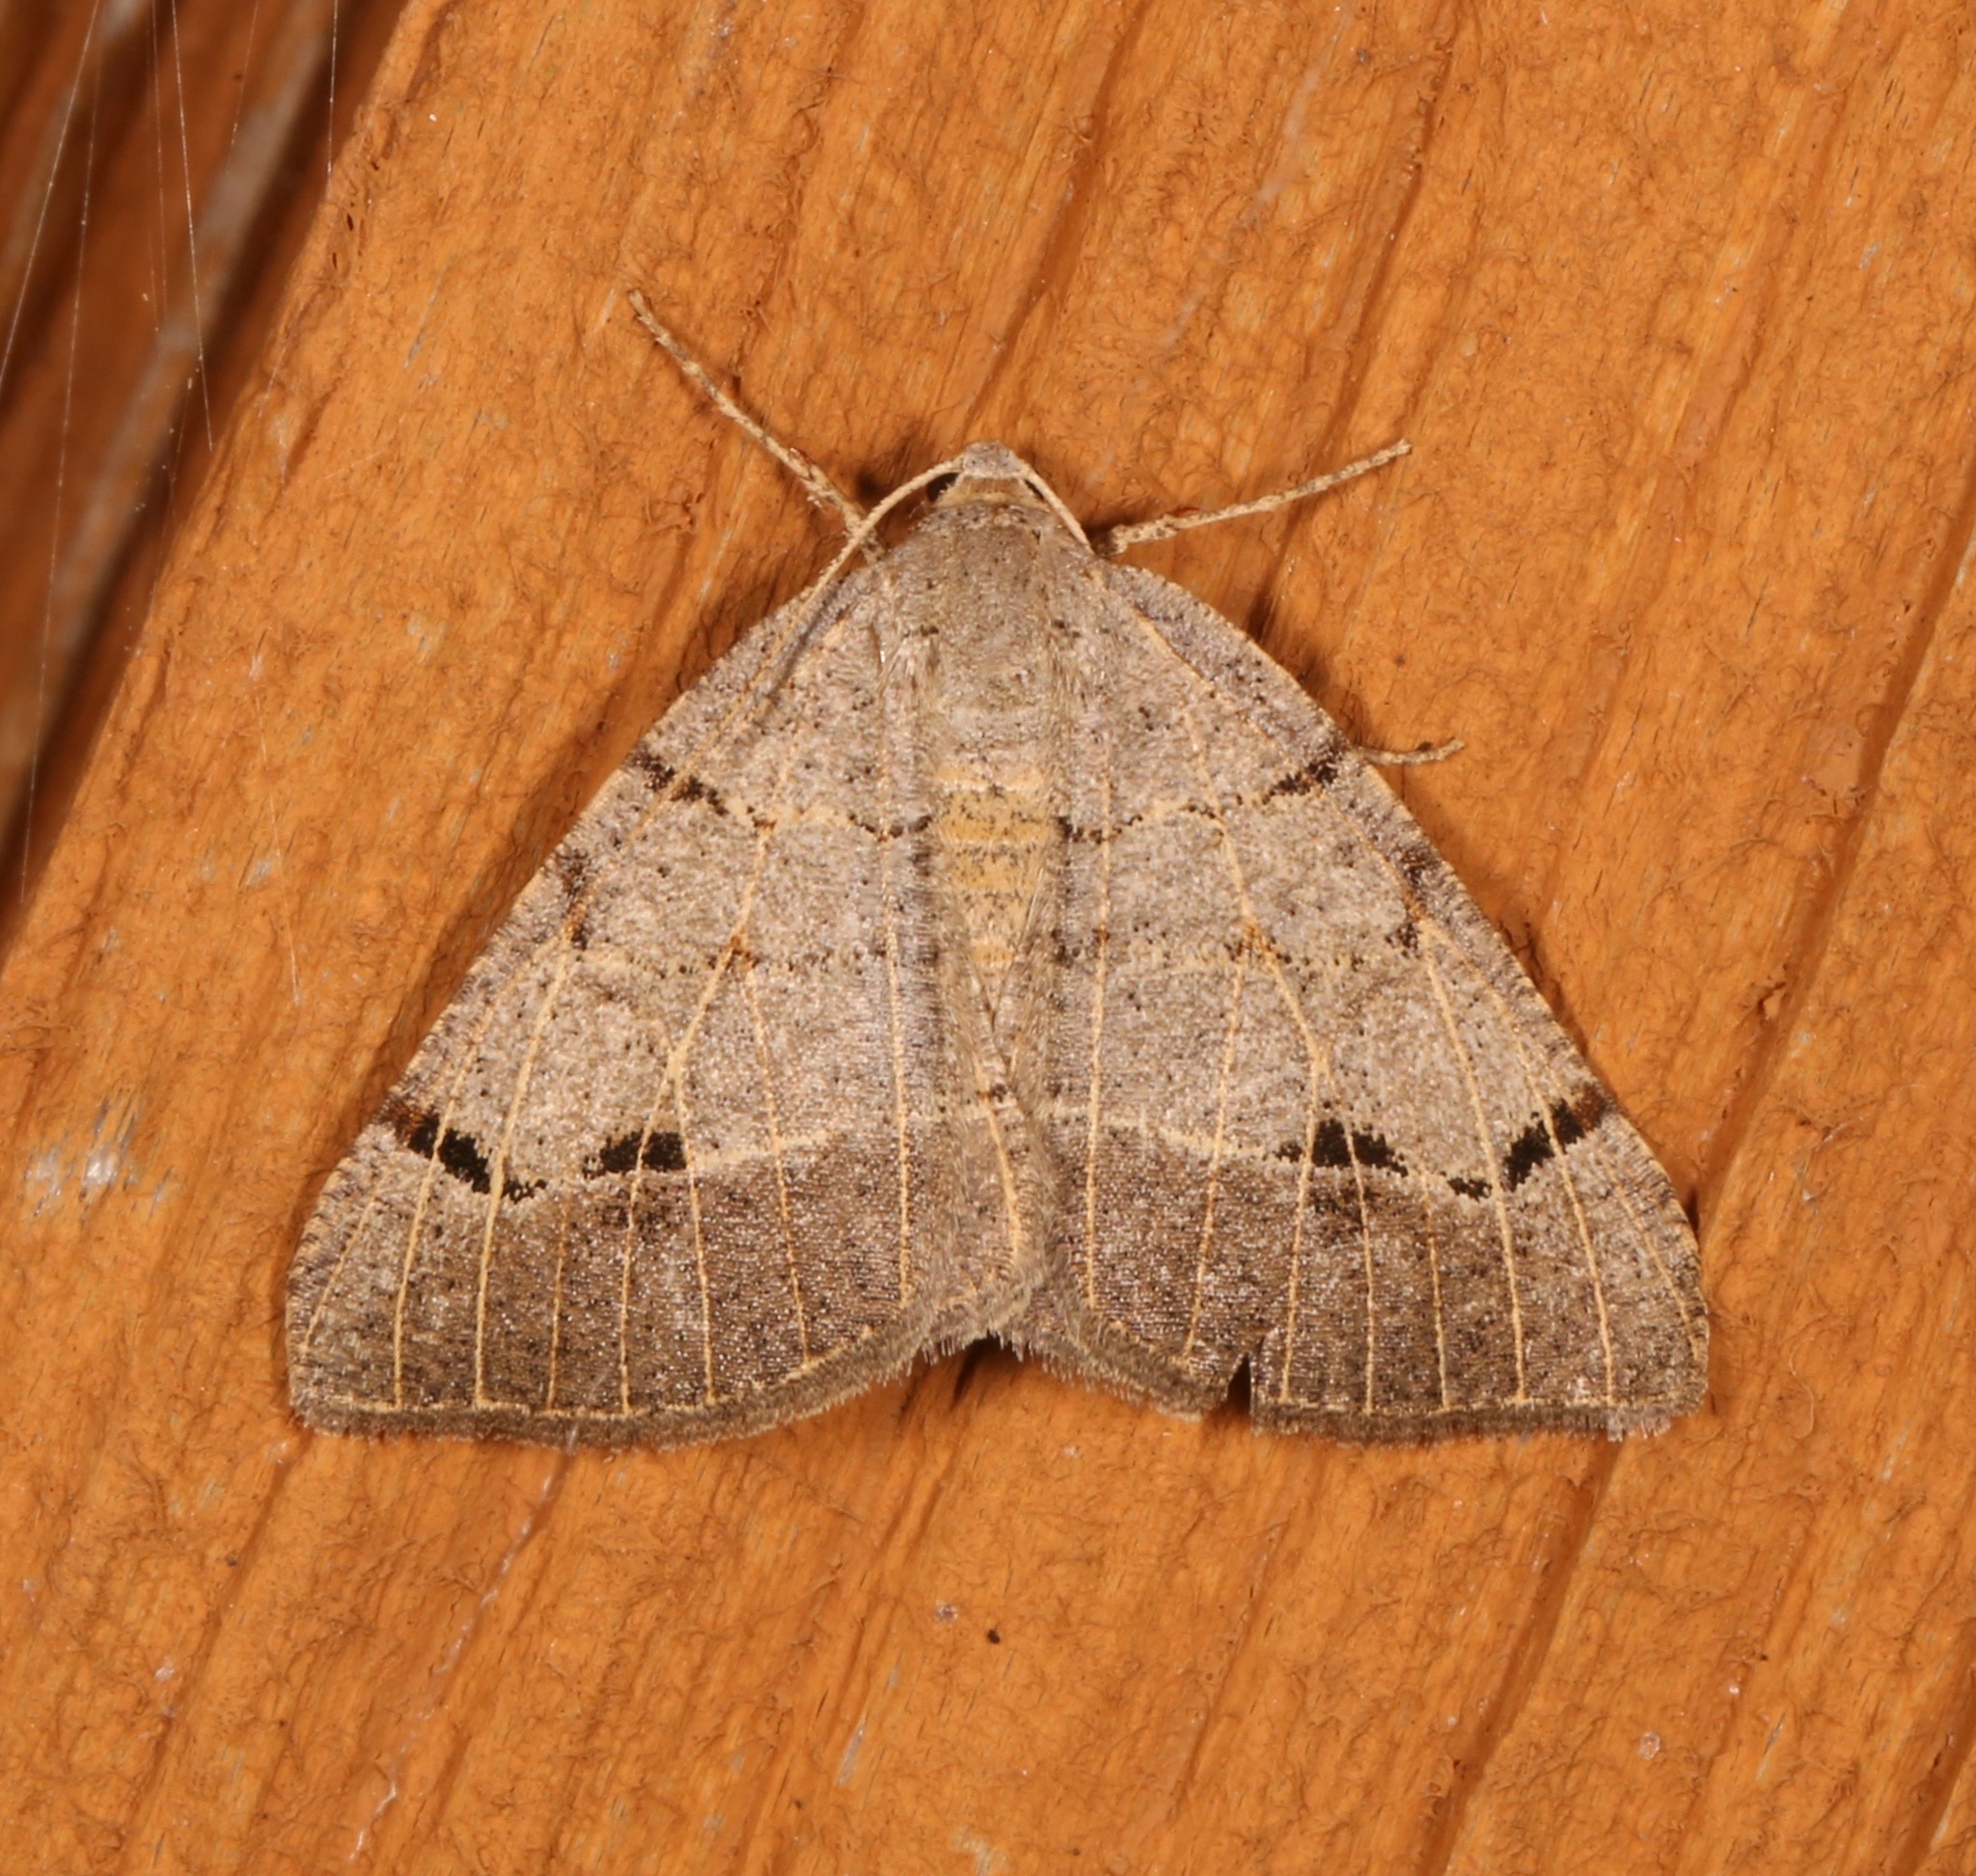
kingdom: Animalia
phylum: Arthropoda
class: Insecta
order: Lepidoptera
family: Geometridae
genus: Isturgia
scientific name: Isturgia dislocaria
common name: Pale-viened enconista
